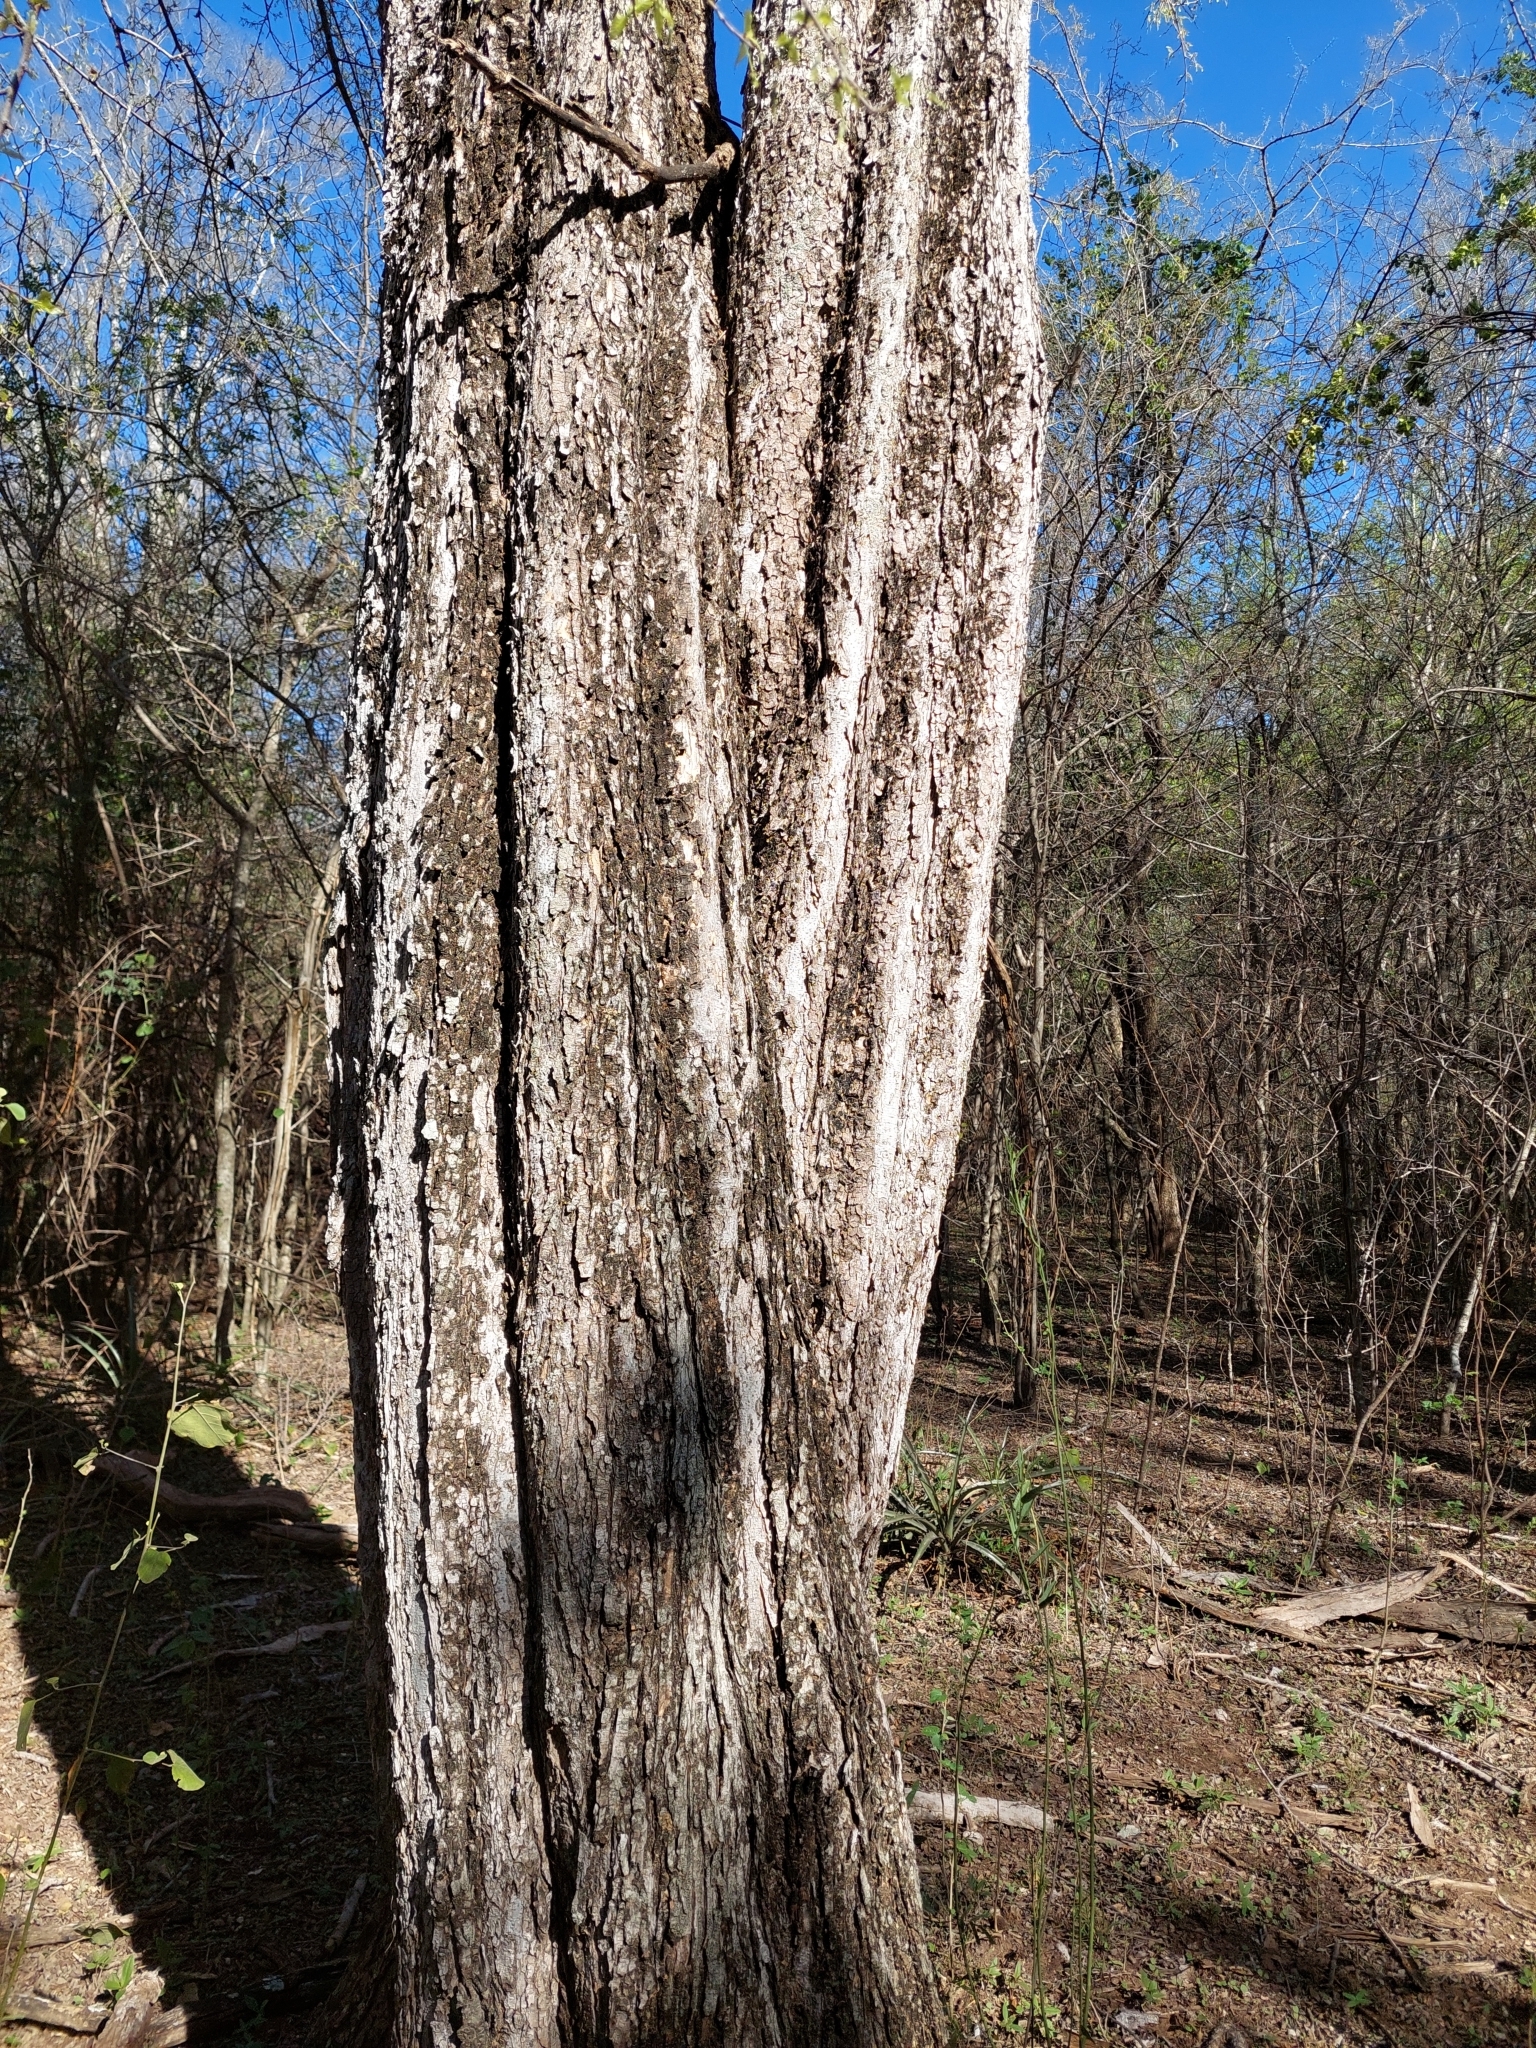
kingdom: Plantae
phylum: Tracheophyta
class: Magnoliopsida
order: Rosales
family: Ulmaceae
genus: Phyllostylon
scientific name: Phyllostylon rhamnoides
